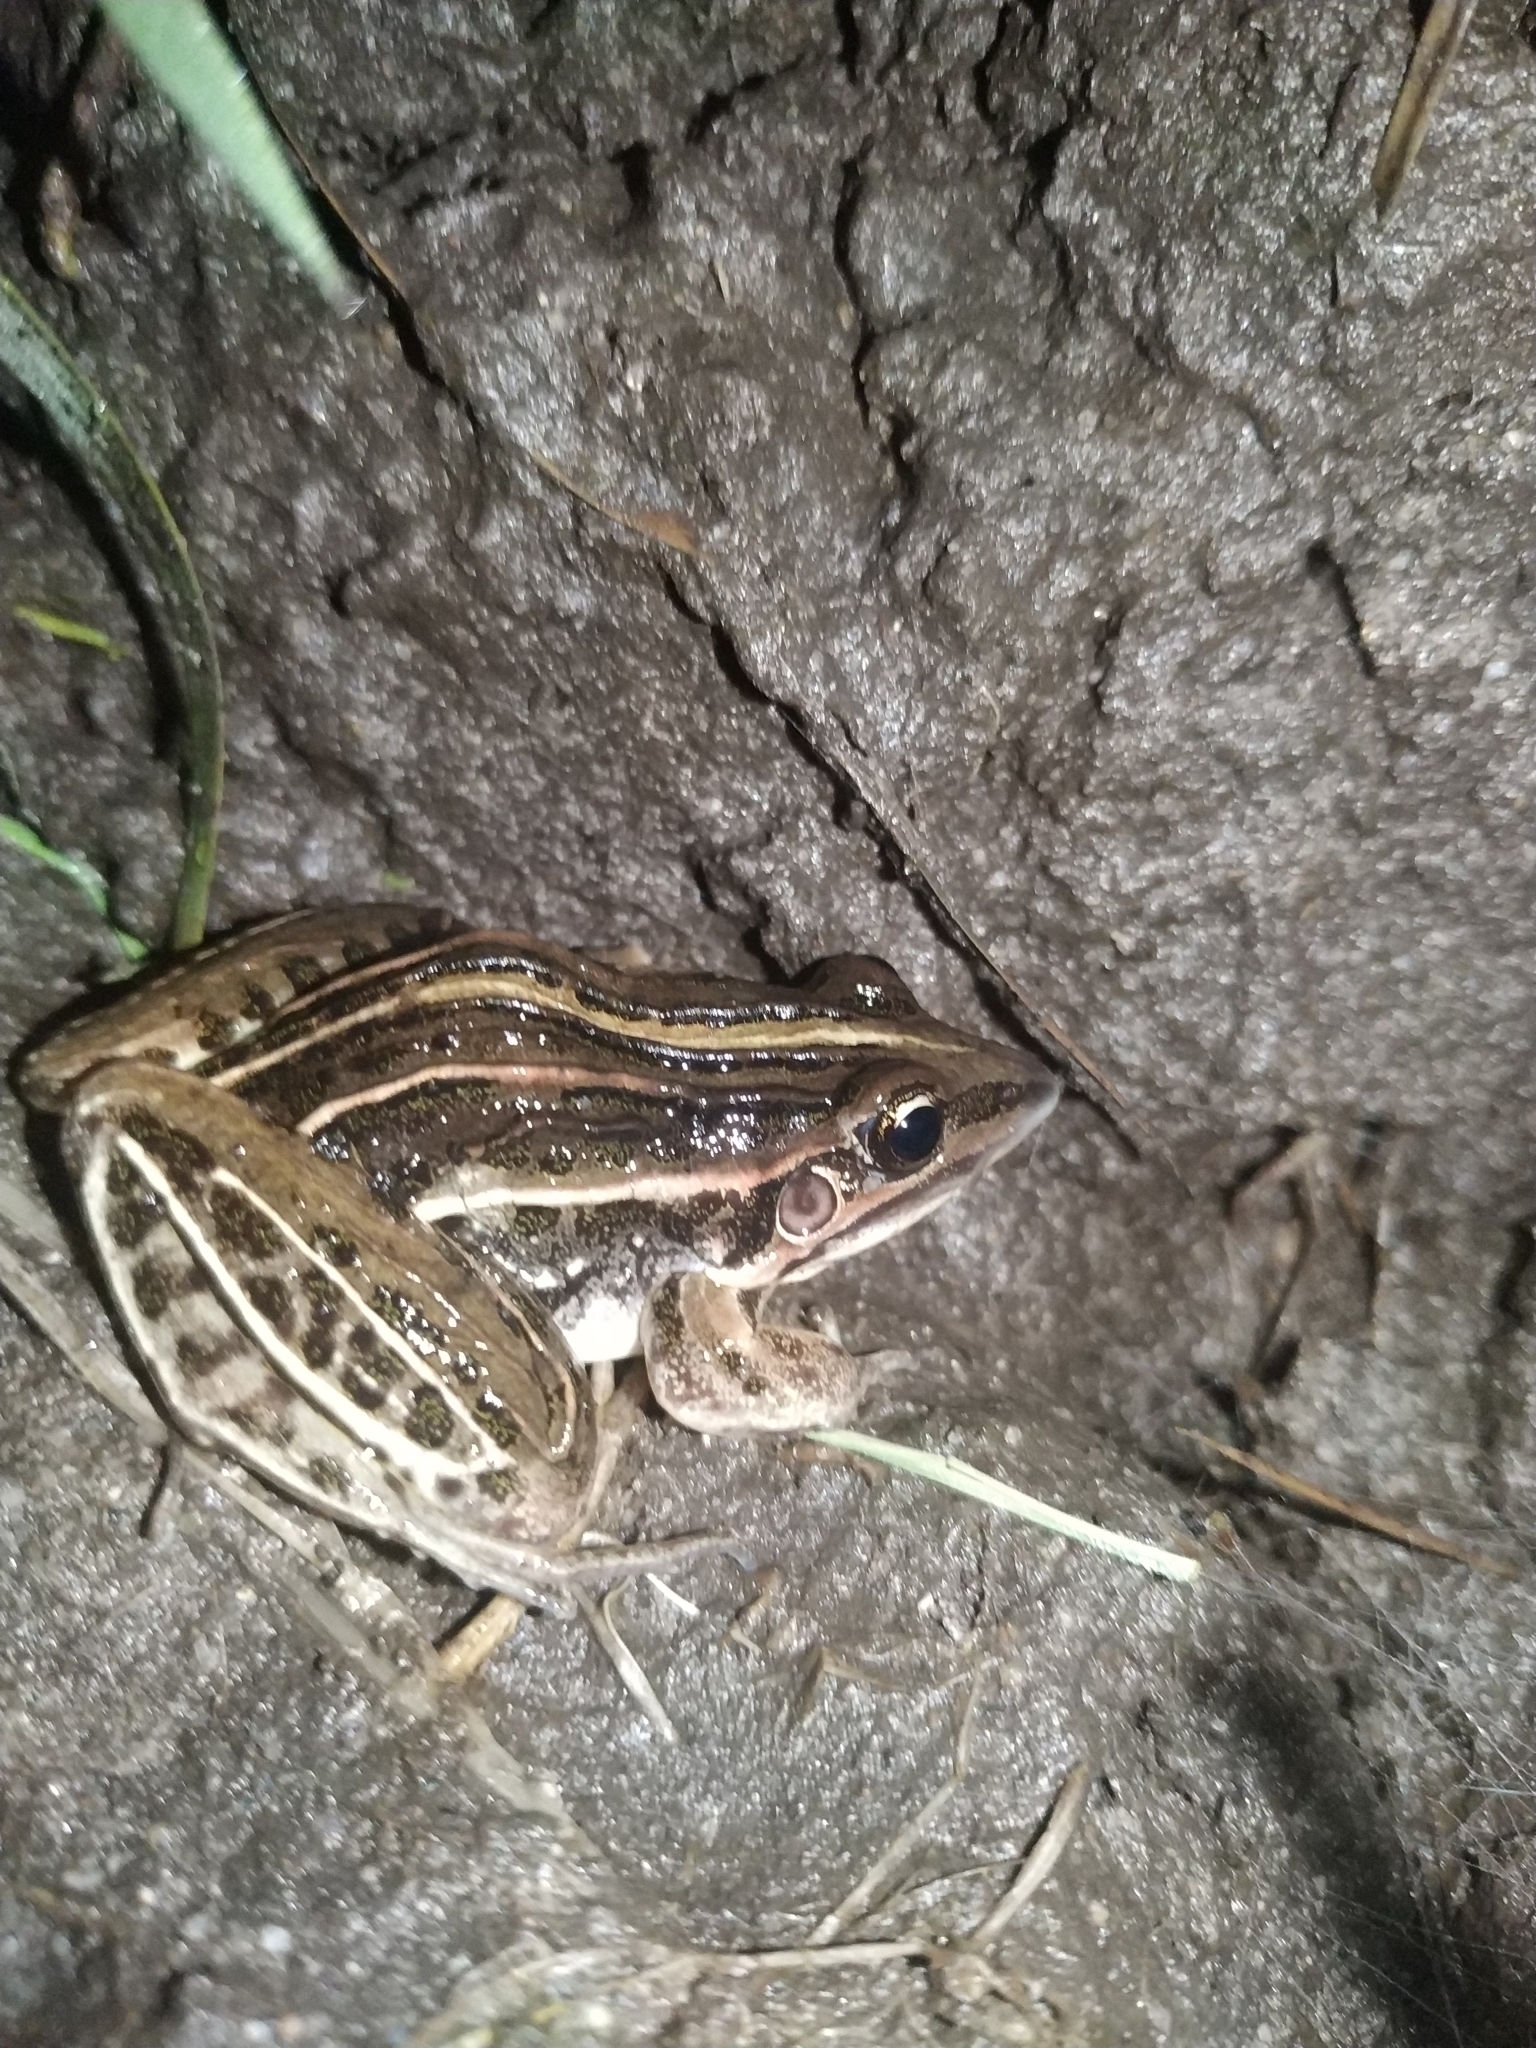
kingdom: Animalia
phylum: Chordata
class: Amphibia
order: Anura
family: Leptodactylidae
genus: Leptodactylus
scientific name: Leptodactylus gracilis
